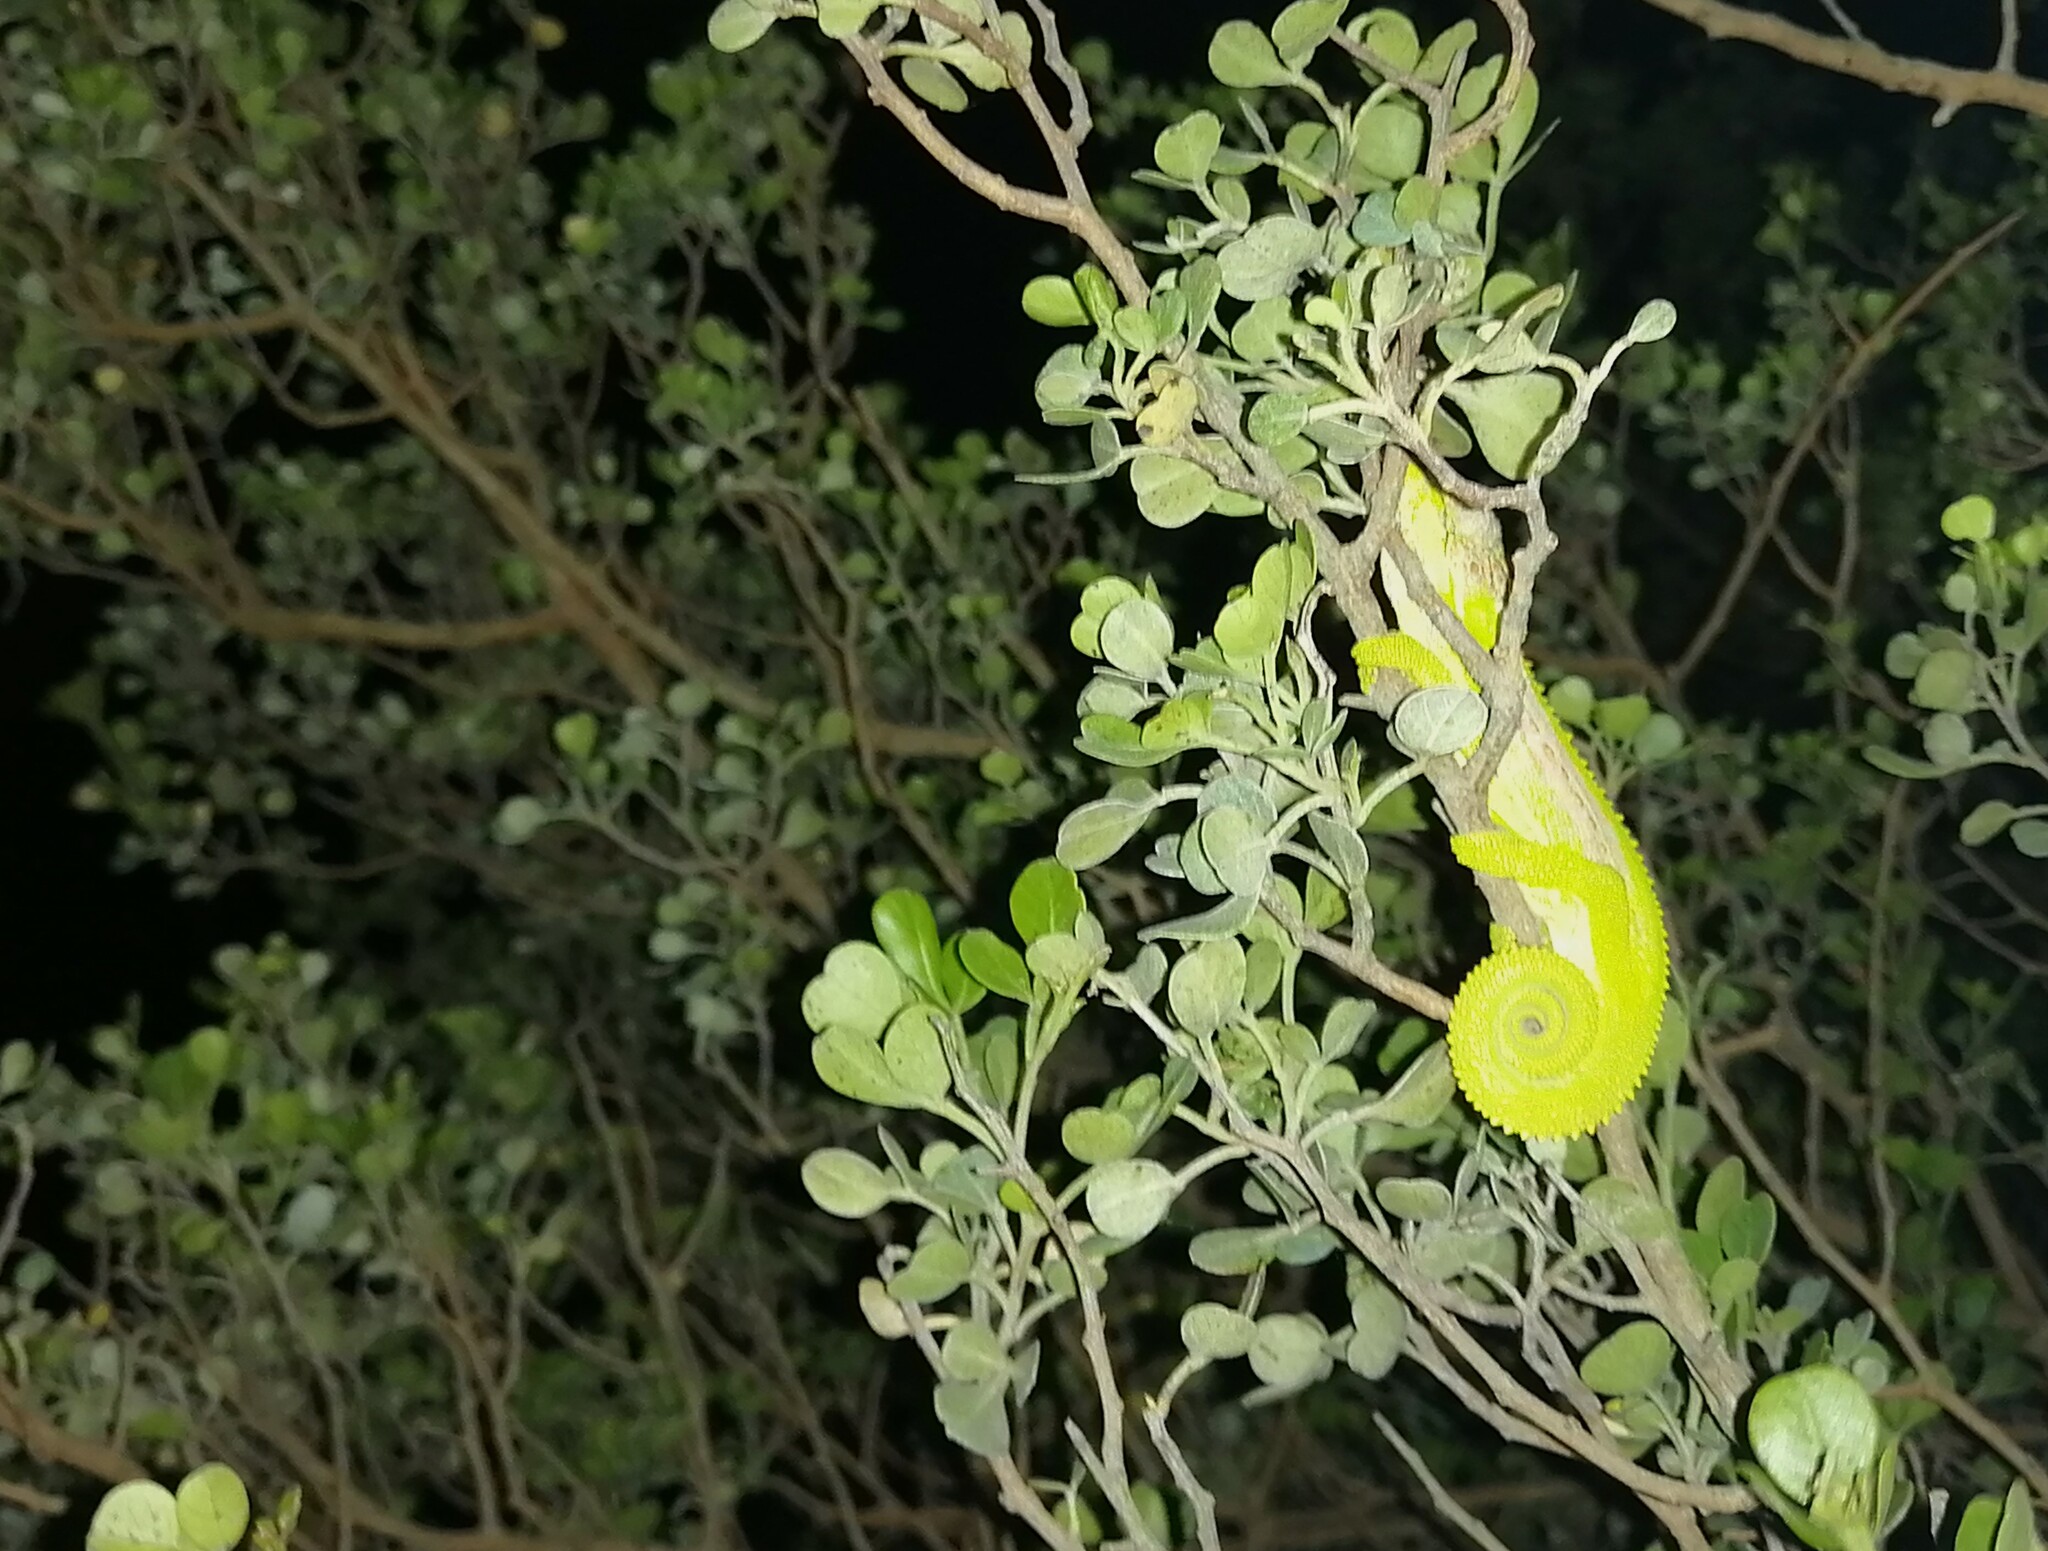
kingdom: Animalia
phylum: Chordata
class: Squamata
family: Chamaeleonidae
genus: Bradypodion
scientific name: Bradypodion pumilum
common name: Cape dwarf chameleon
